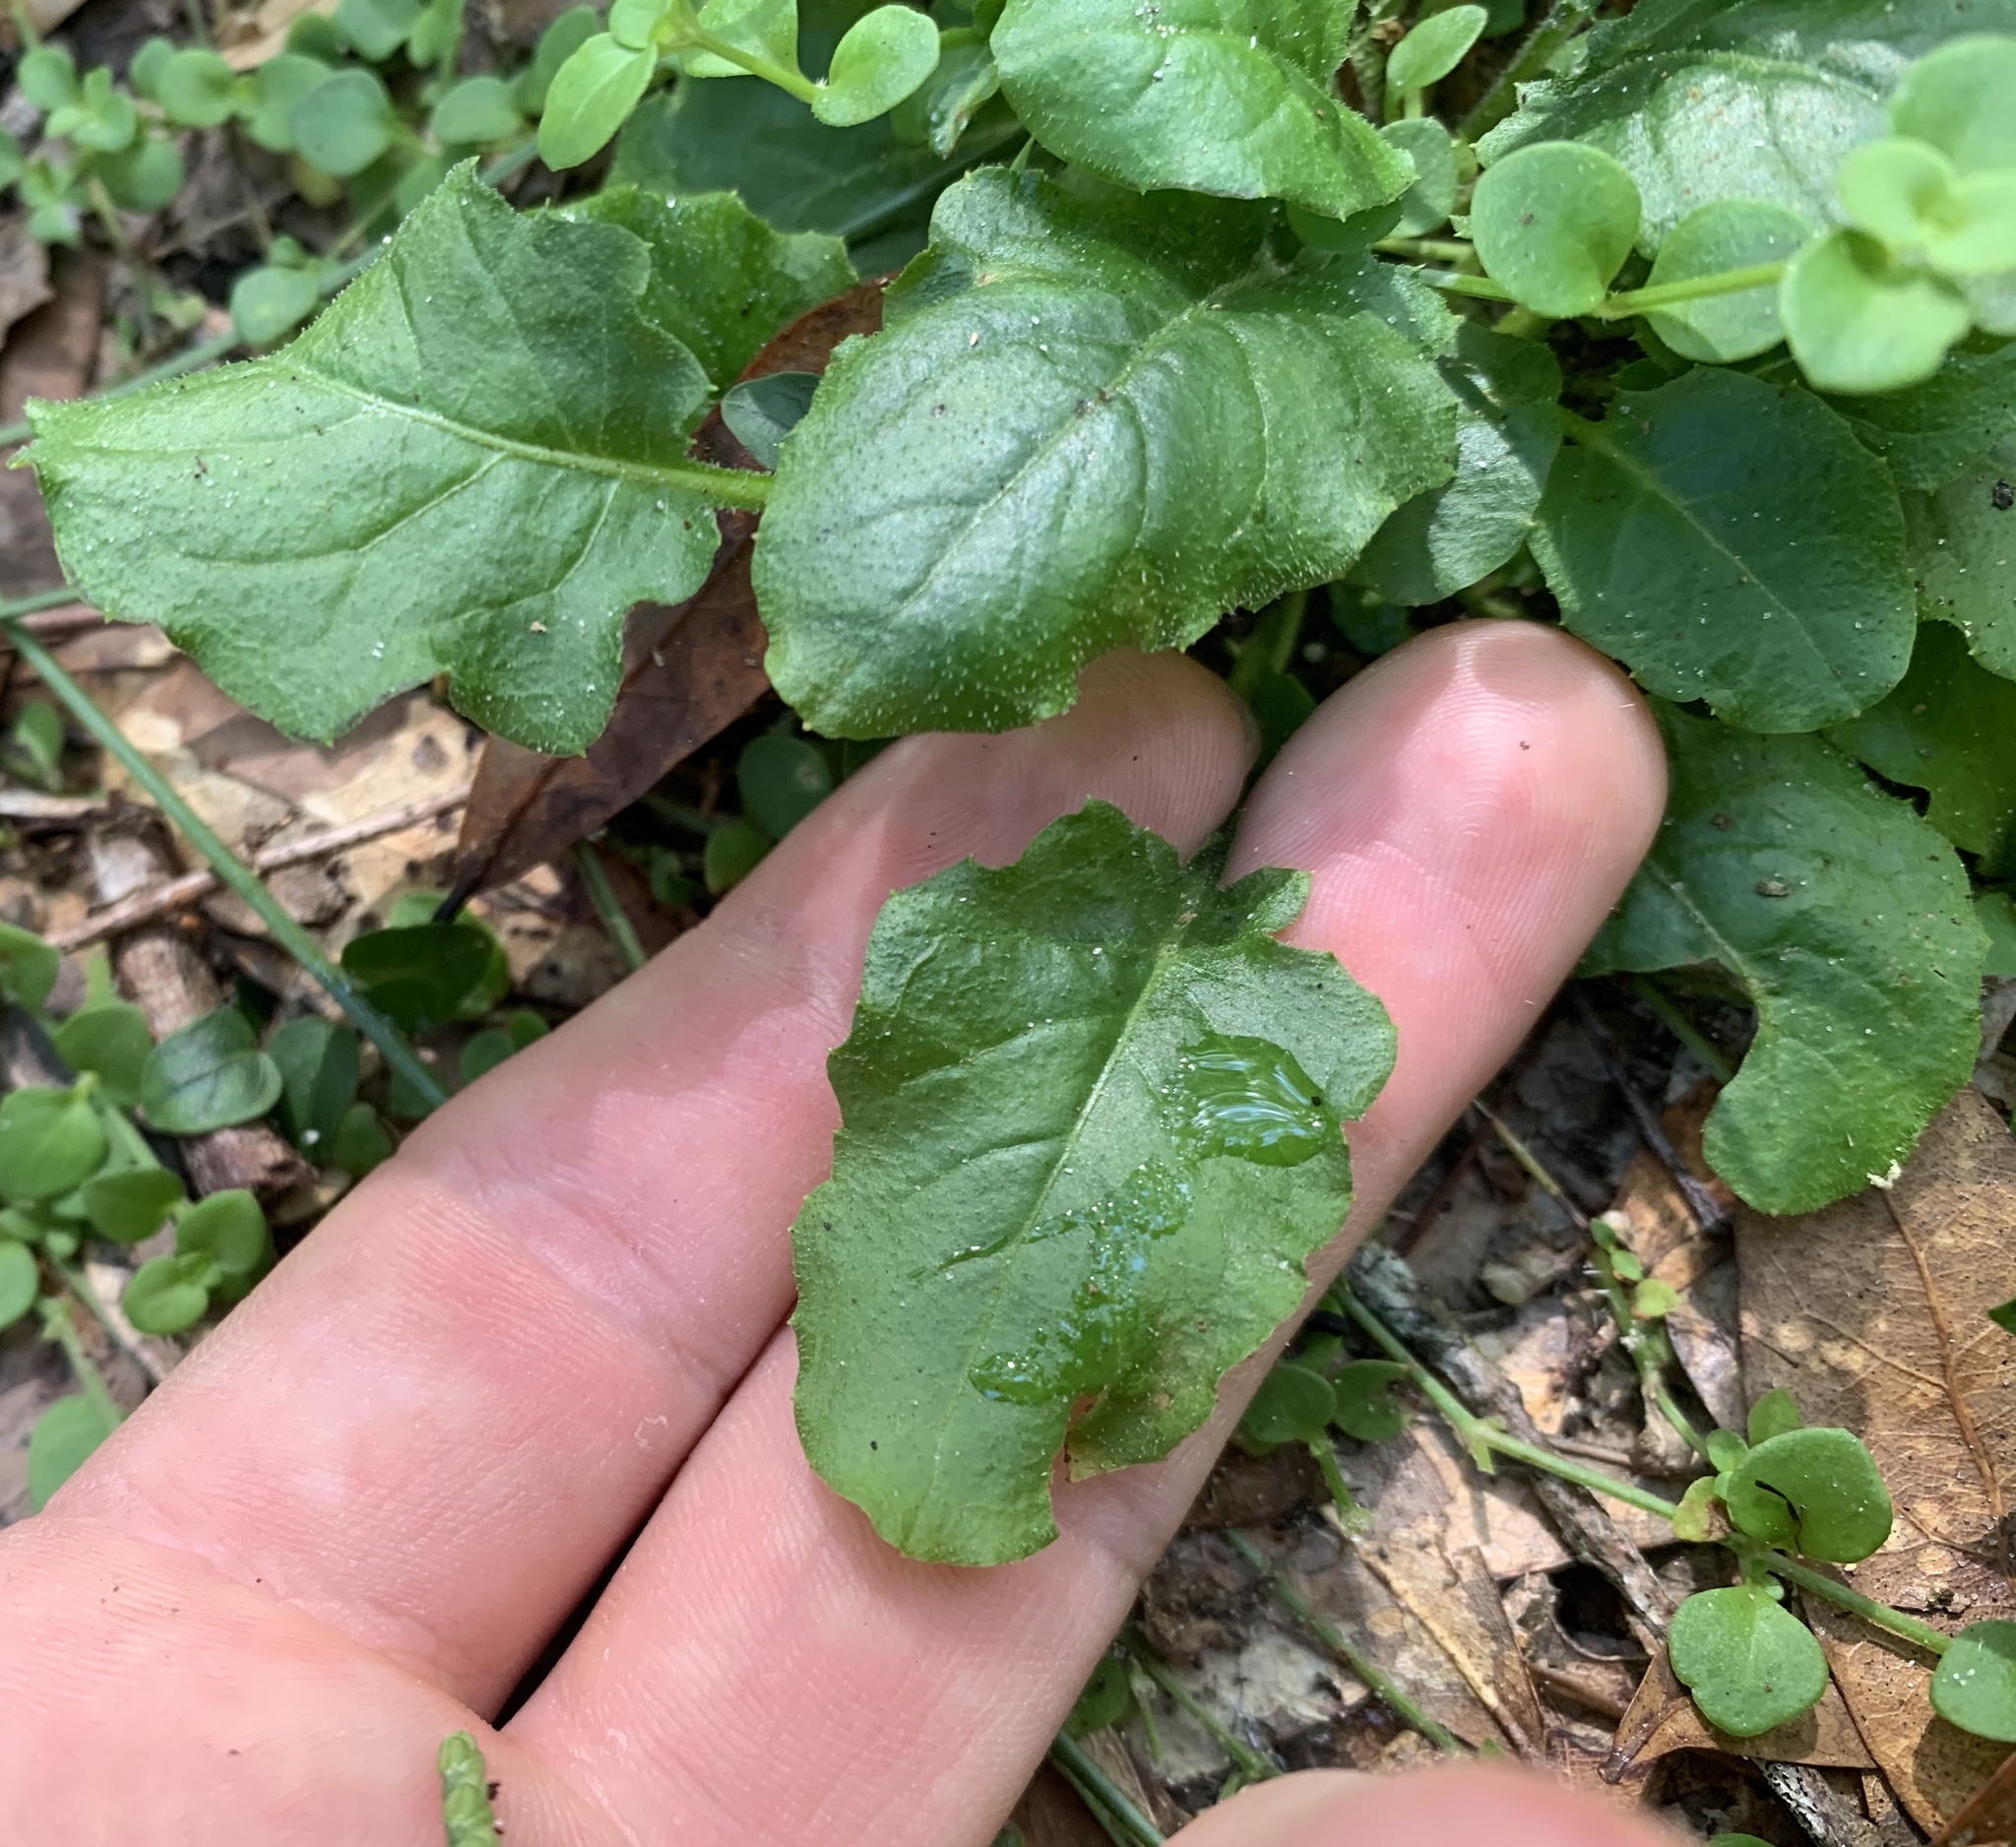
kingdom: Plantae
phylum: Tracheophyta
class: Magnoliopsida
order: Asterales
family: Asteraceae
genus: Youngia
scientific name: Youngia japonica
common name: Oriental false hawksbeard
